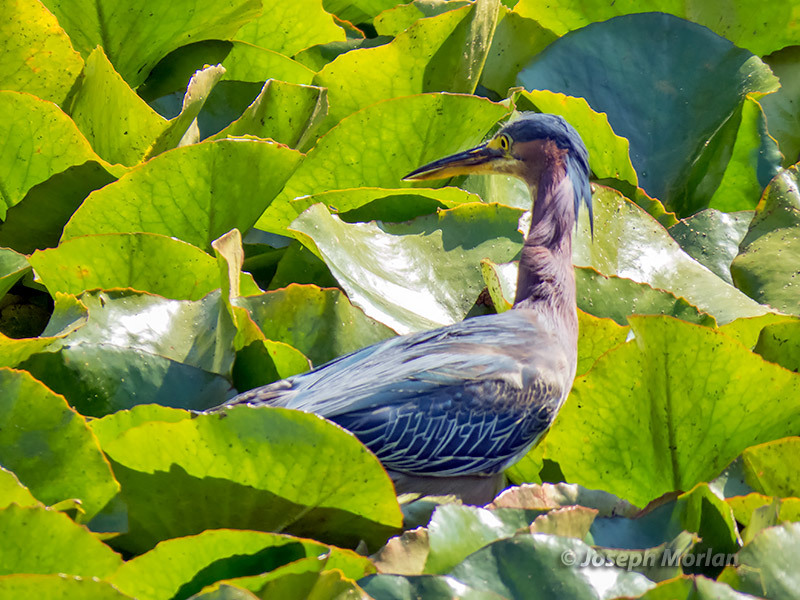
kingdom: Animalia
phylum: Chordata
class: Aves
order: Pelecaniformes
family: Ardeidae
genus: Butorides
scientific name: Butorides virescens
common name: Green heron
